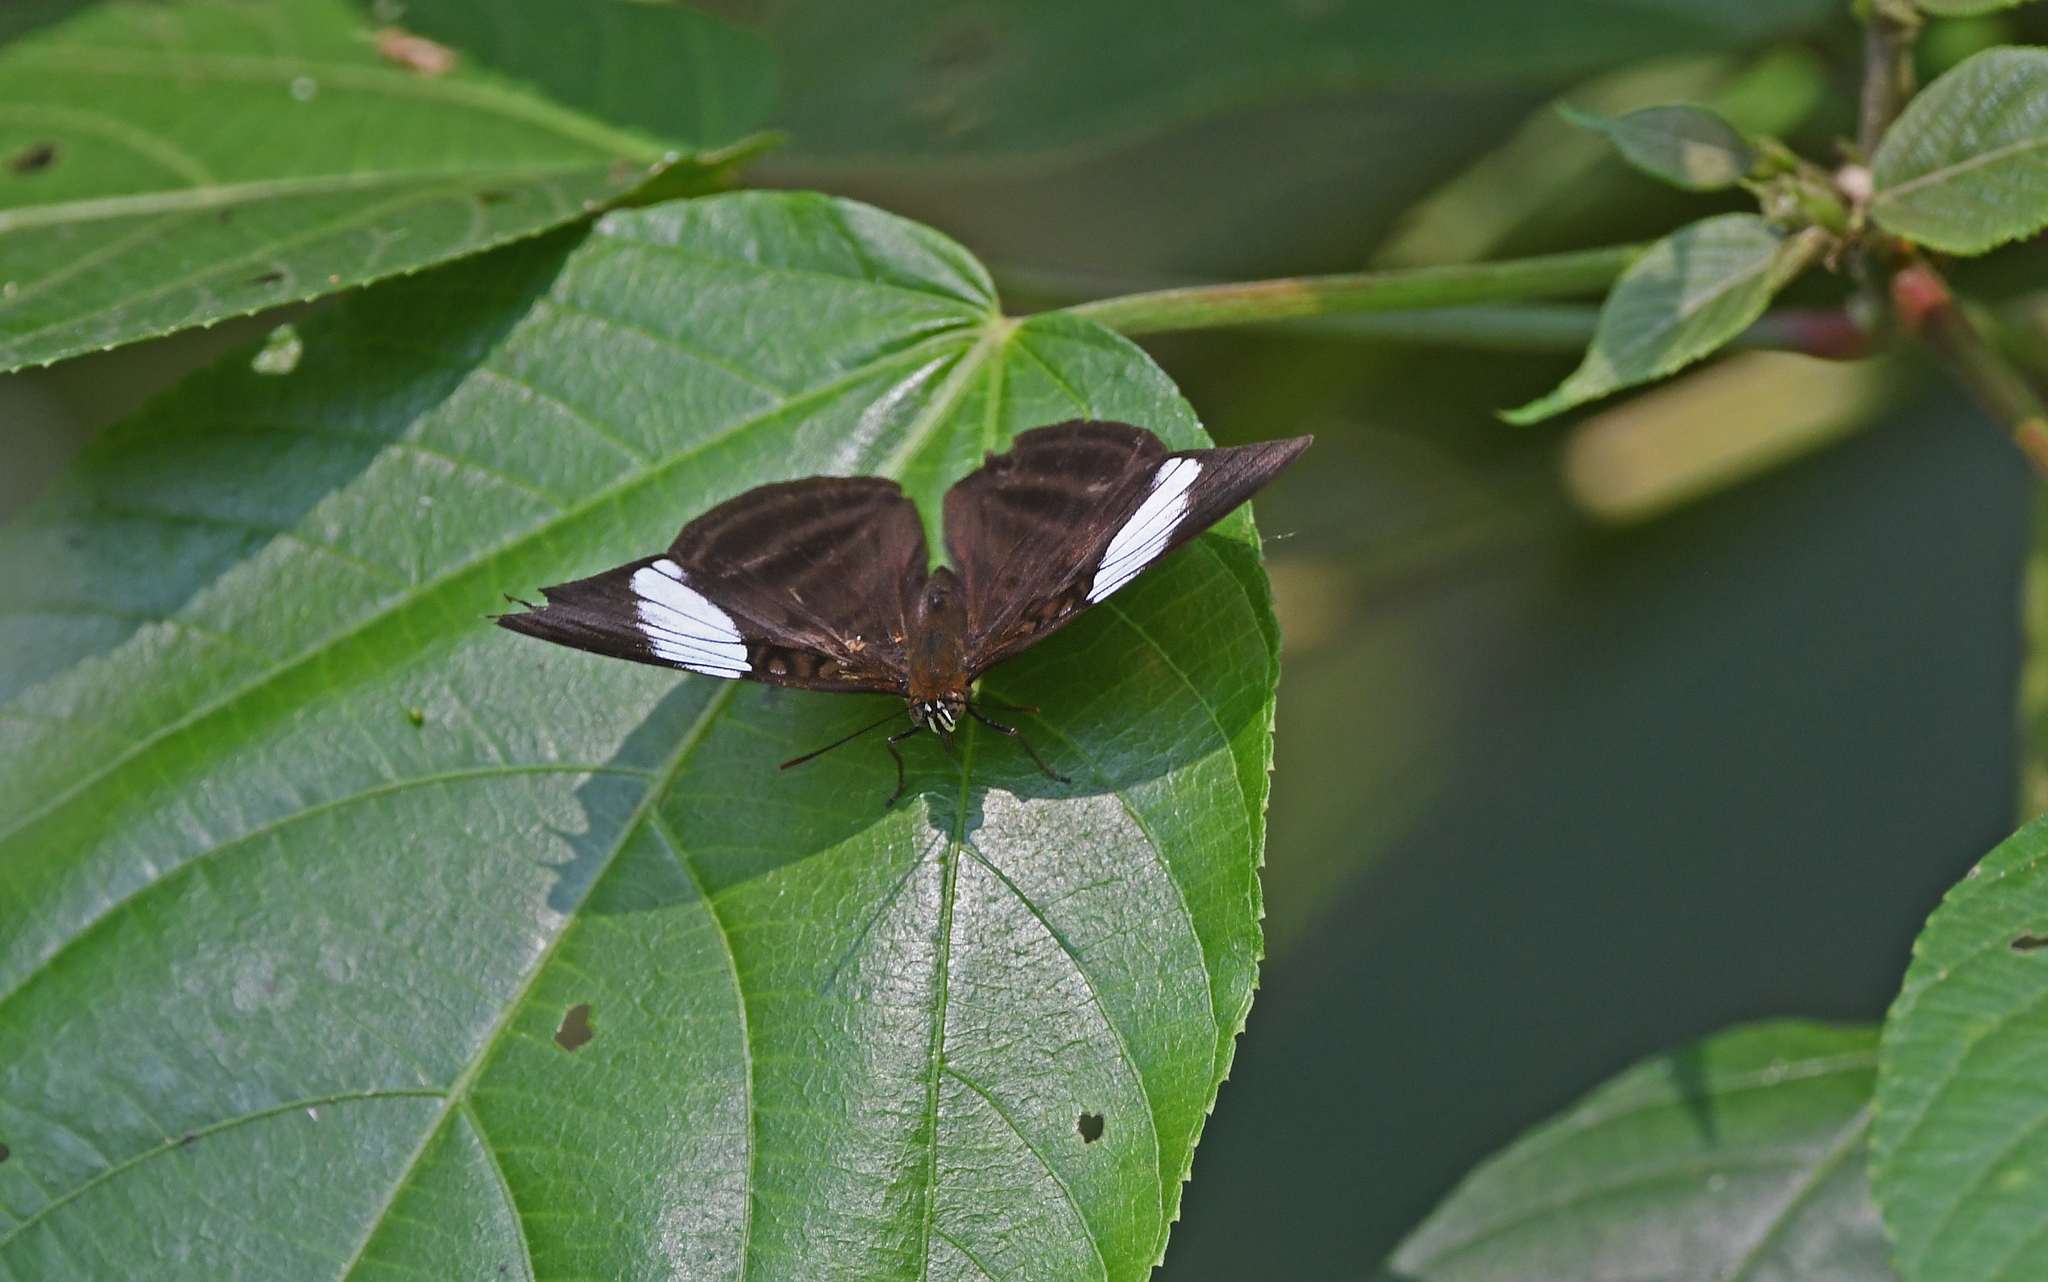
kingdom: Animalia
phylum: Arthropoda
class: Insecta
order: Lepidoptera
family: Nymphalidae
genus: Limenitis
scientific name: Limenitis epione
